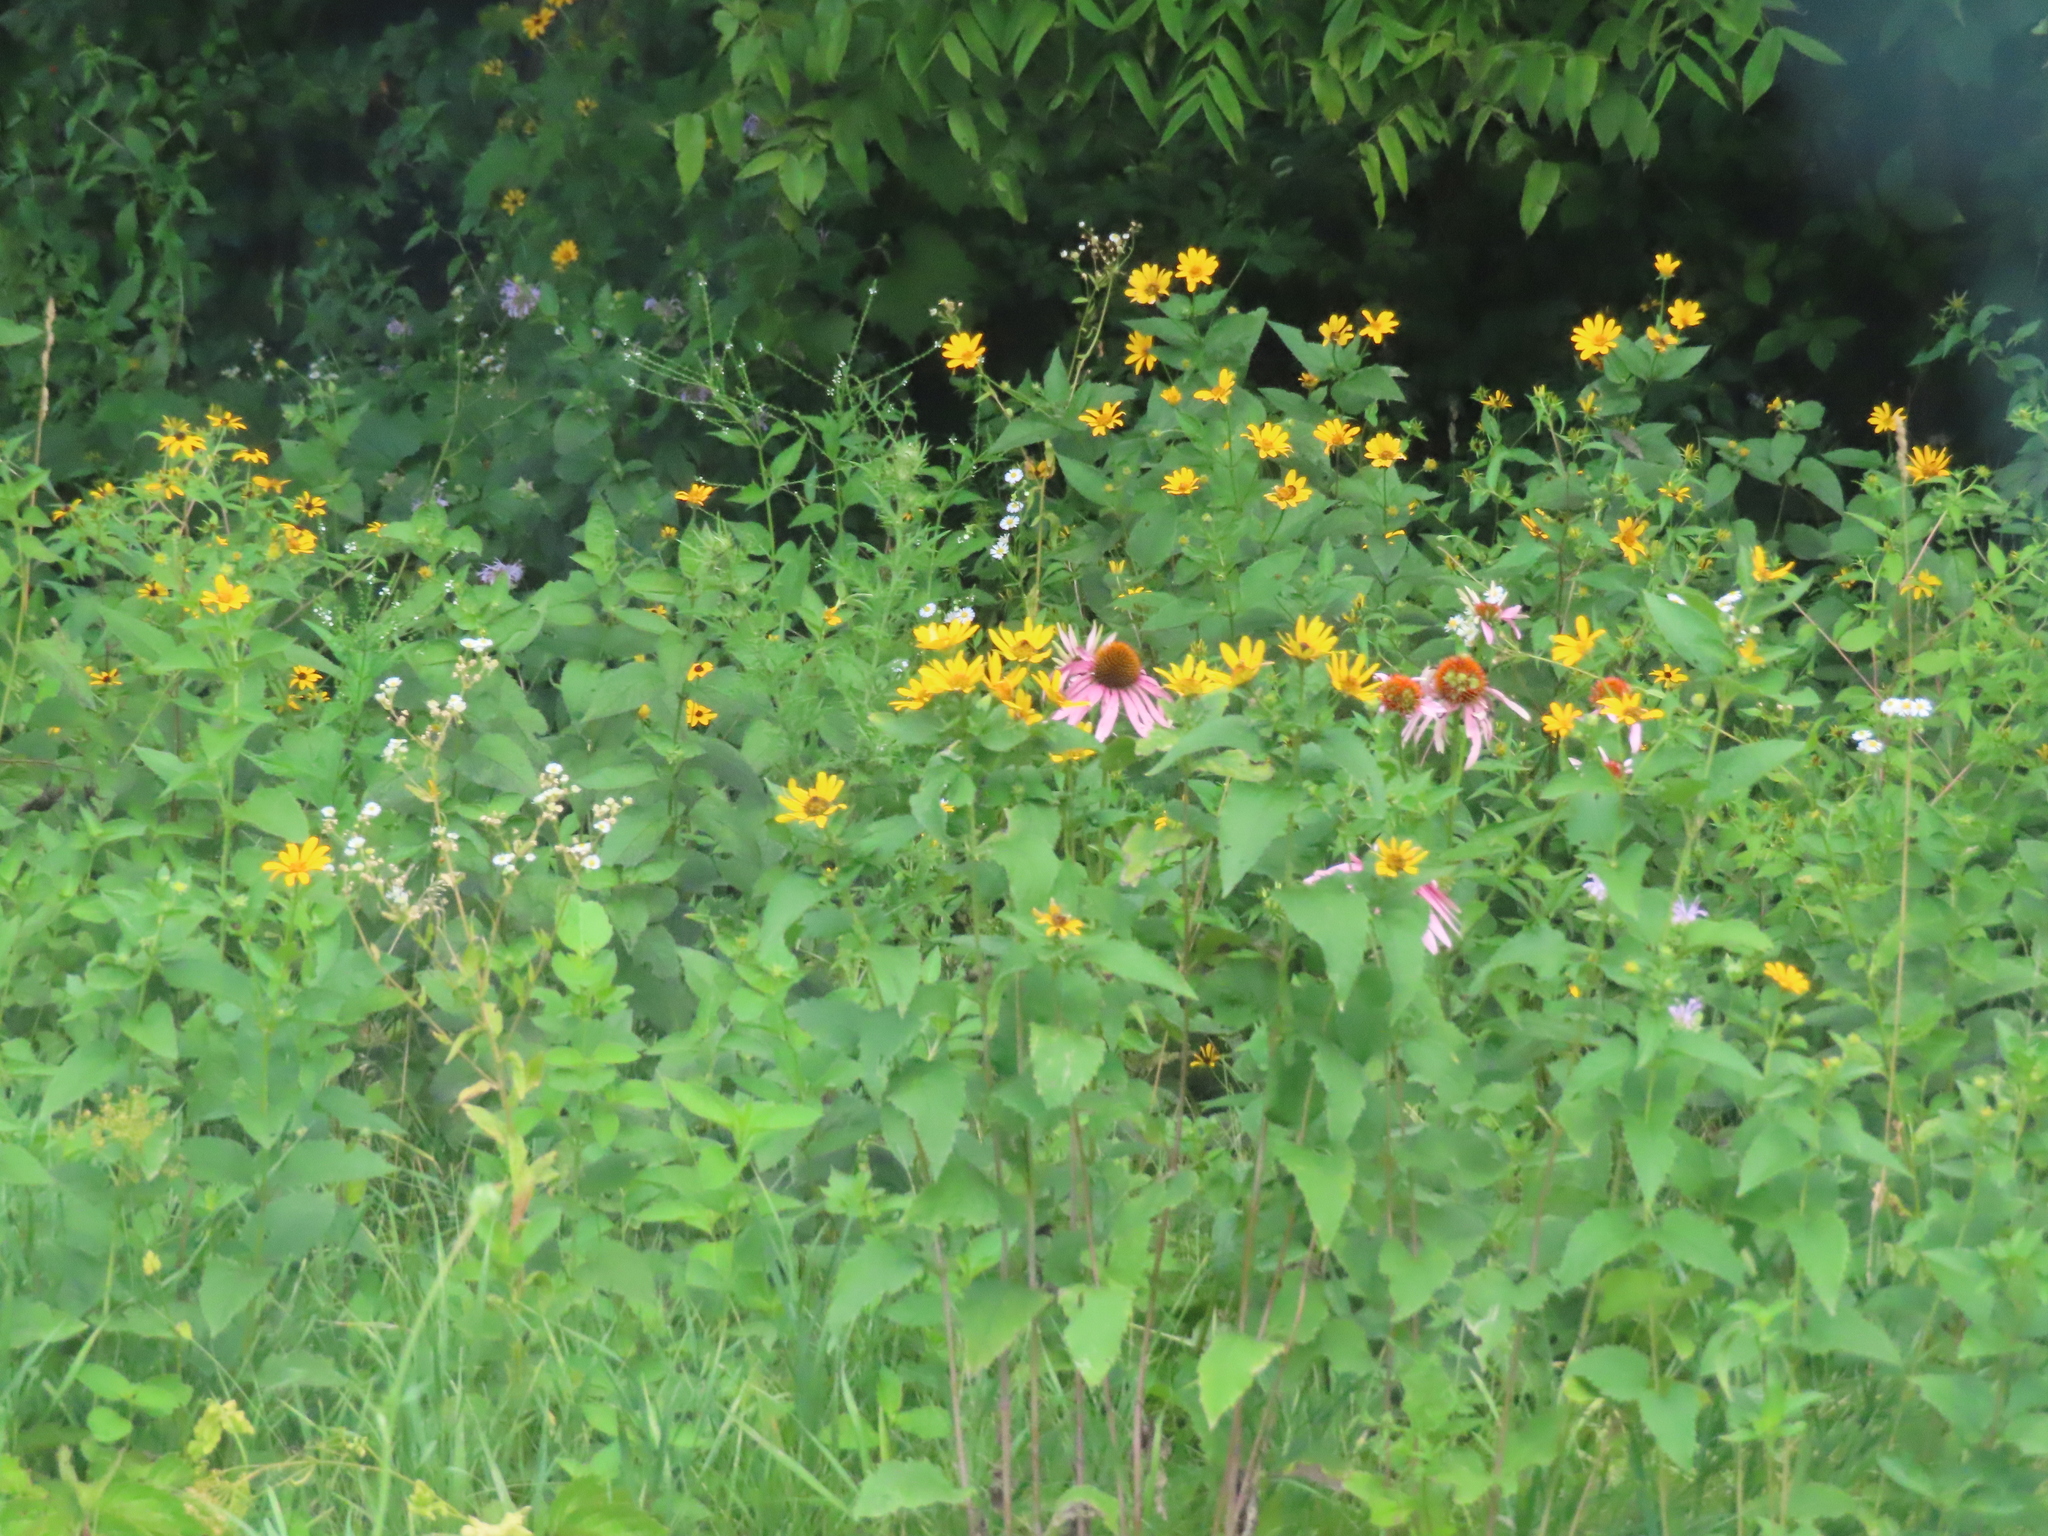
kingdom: Plantae
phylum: Tracheophyta
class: Magnoliopsida
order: Asterales
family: Asteraceae
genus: Echinacea
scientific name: Echinacea purpurea
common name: Broad-leaved purple coneflower
